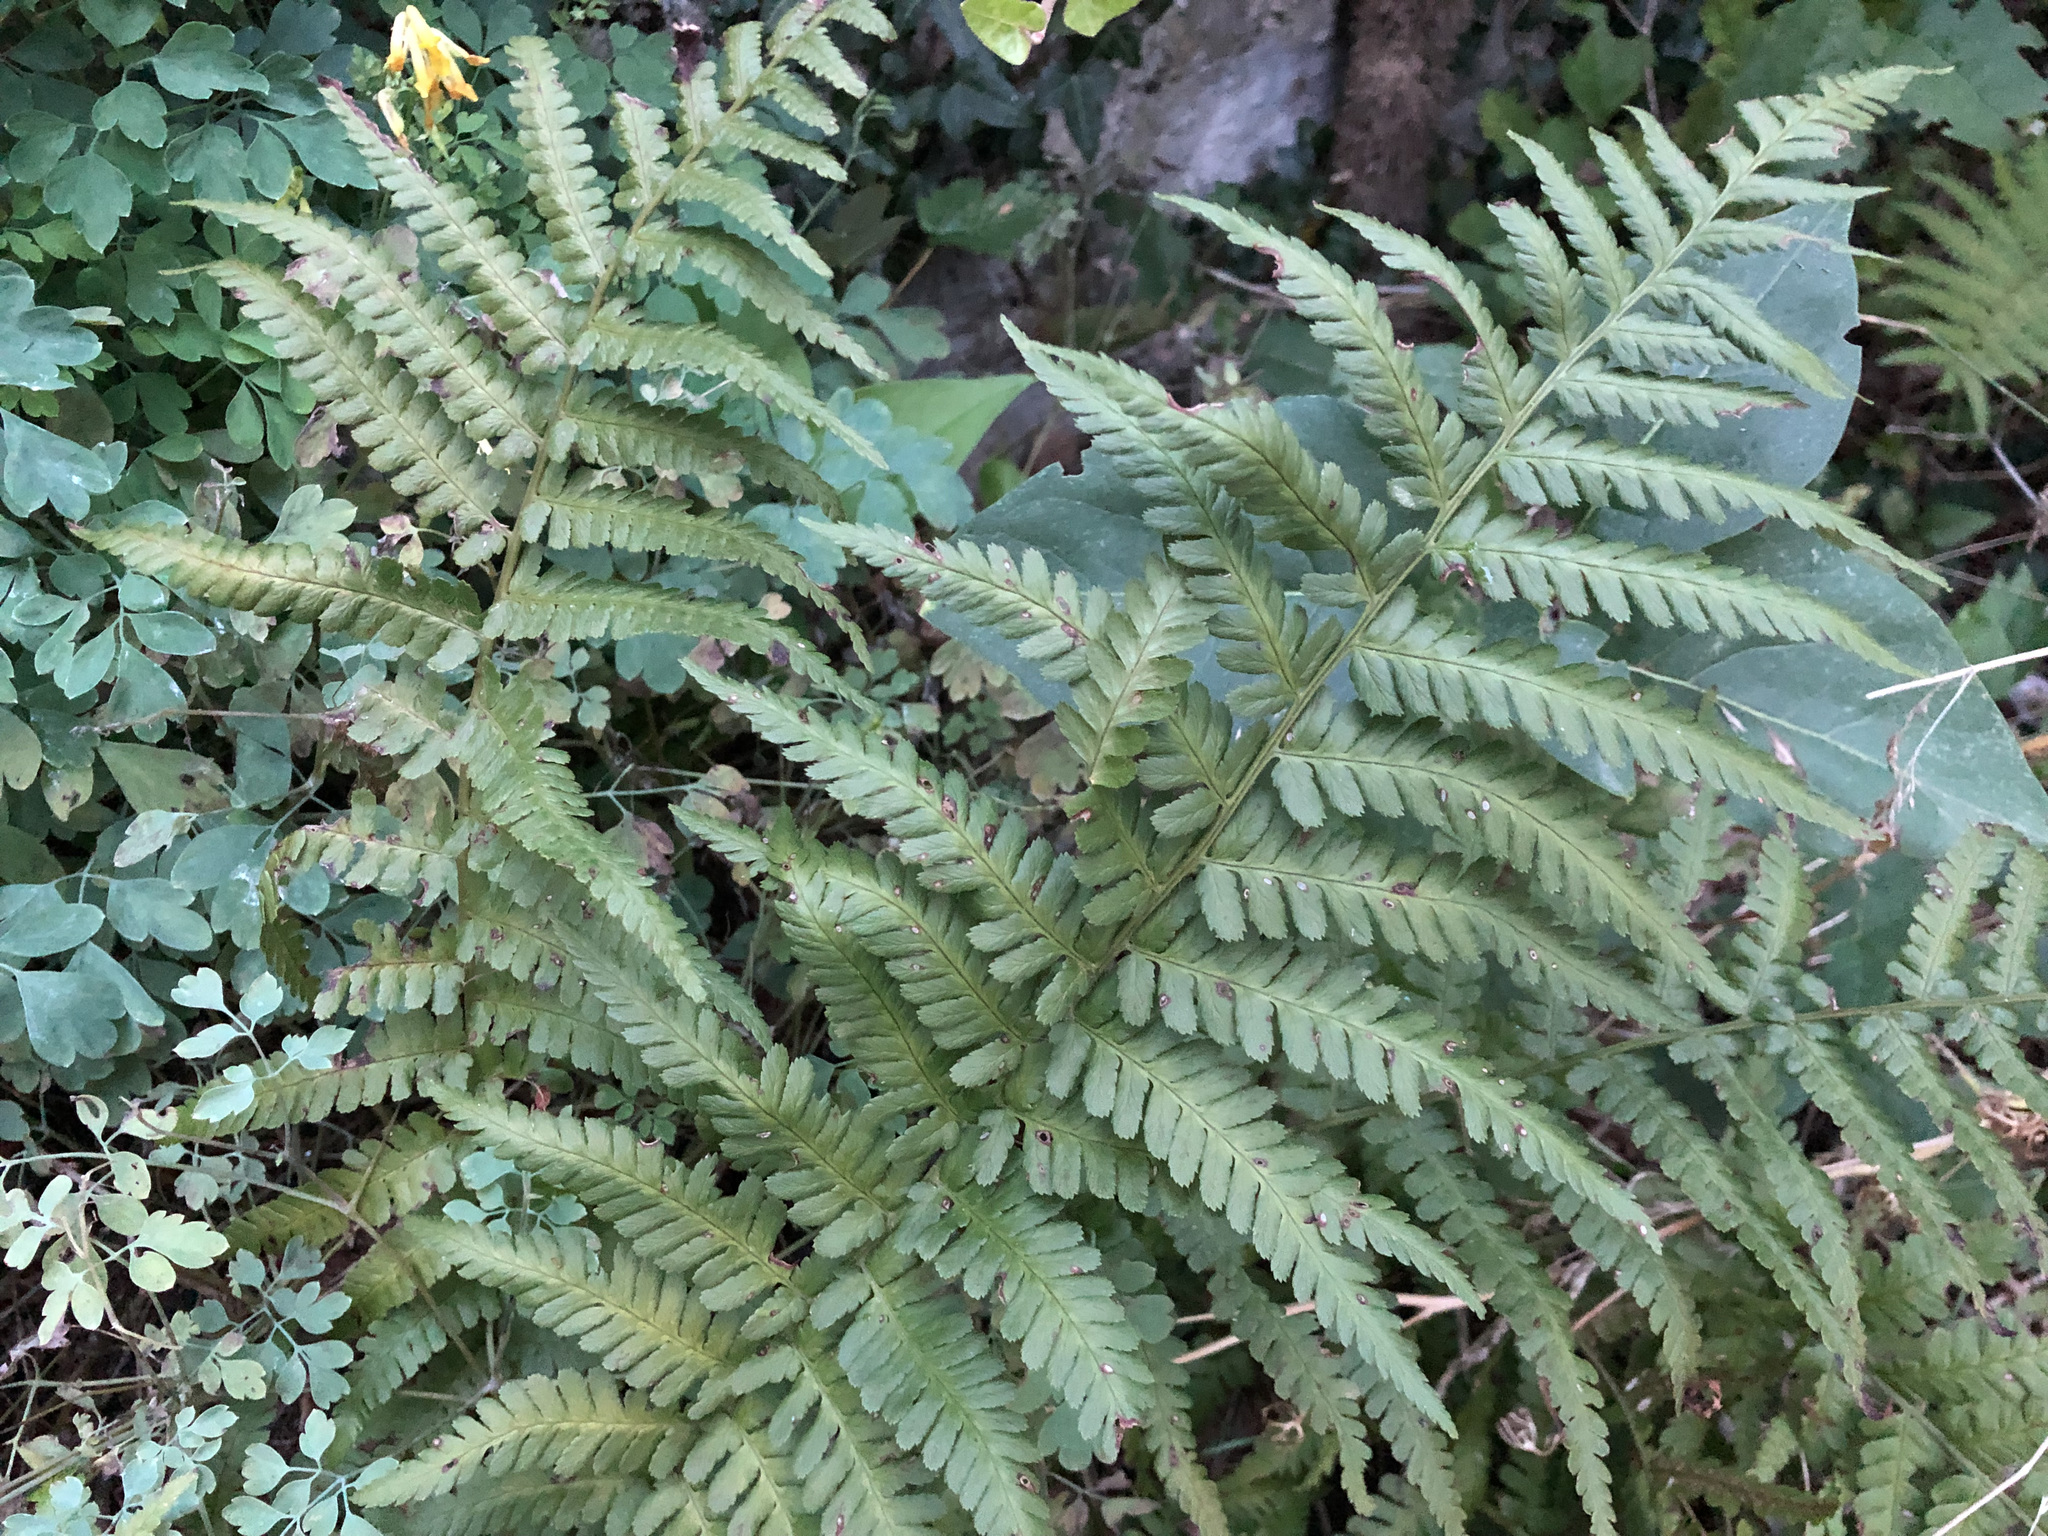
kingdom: Plantae
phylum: Tracheophyta
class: Polypodiopsida
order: Polypodiales
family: Dryopteridaceae
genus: Dryopteris
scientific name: Dryopteris filix-mas
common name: Male fern
